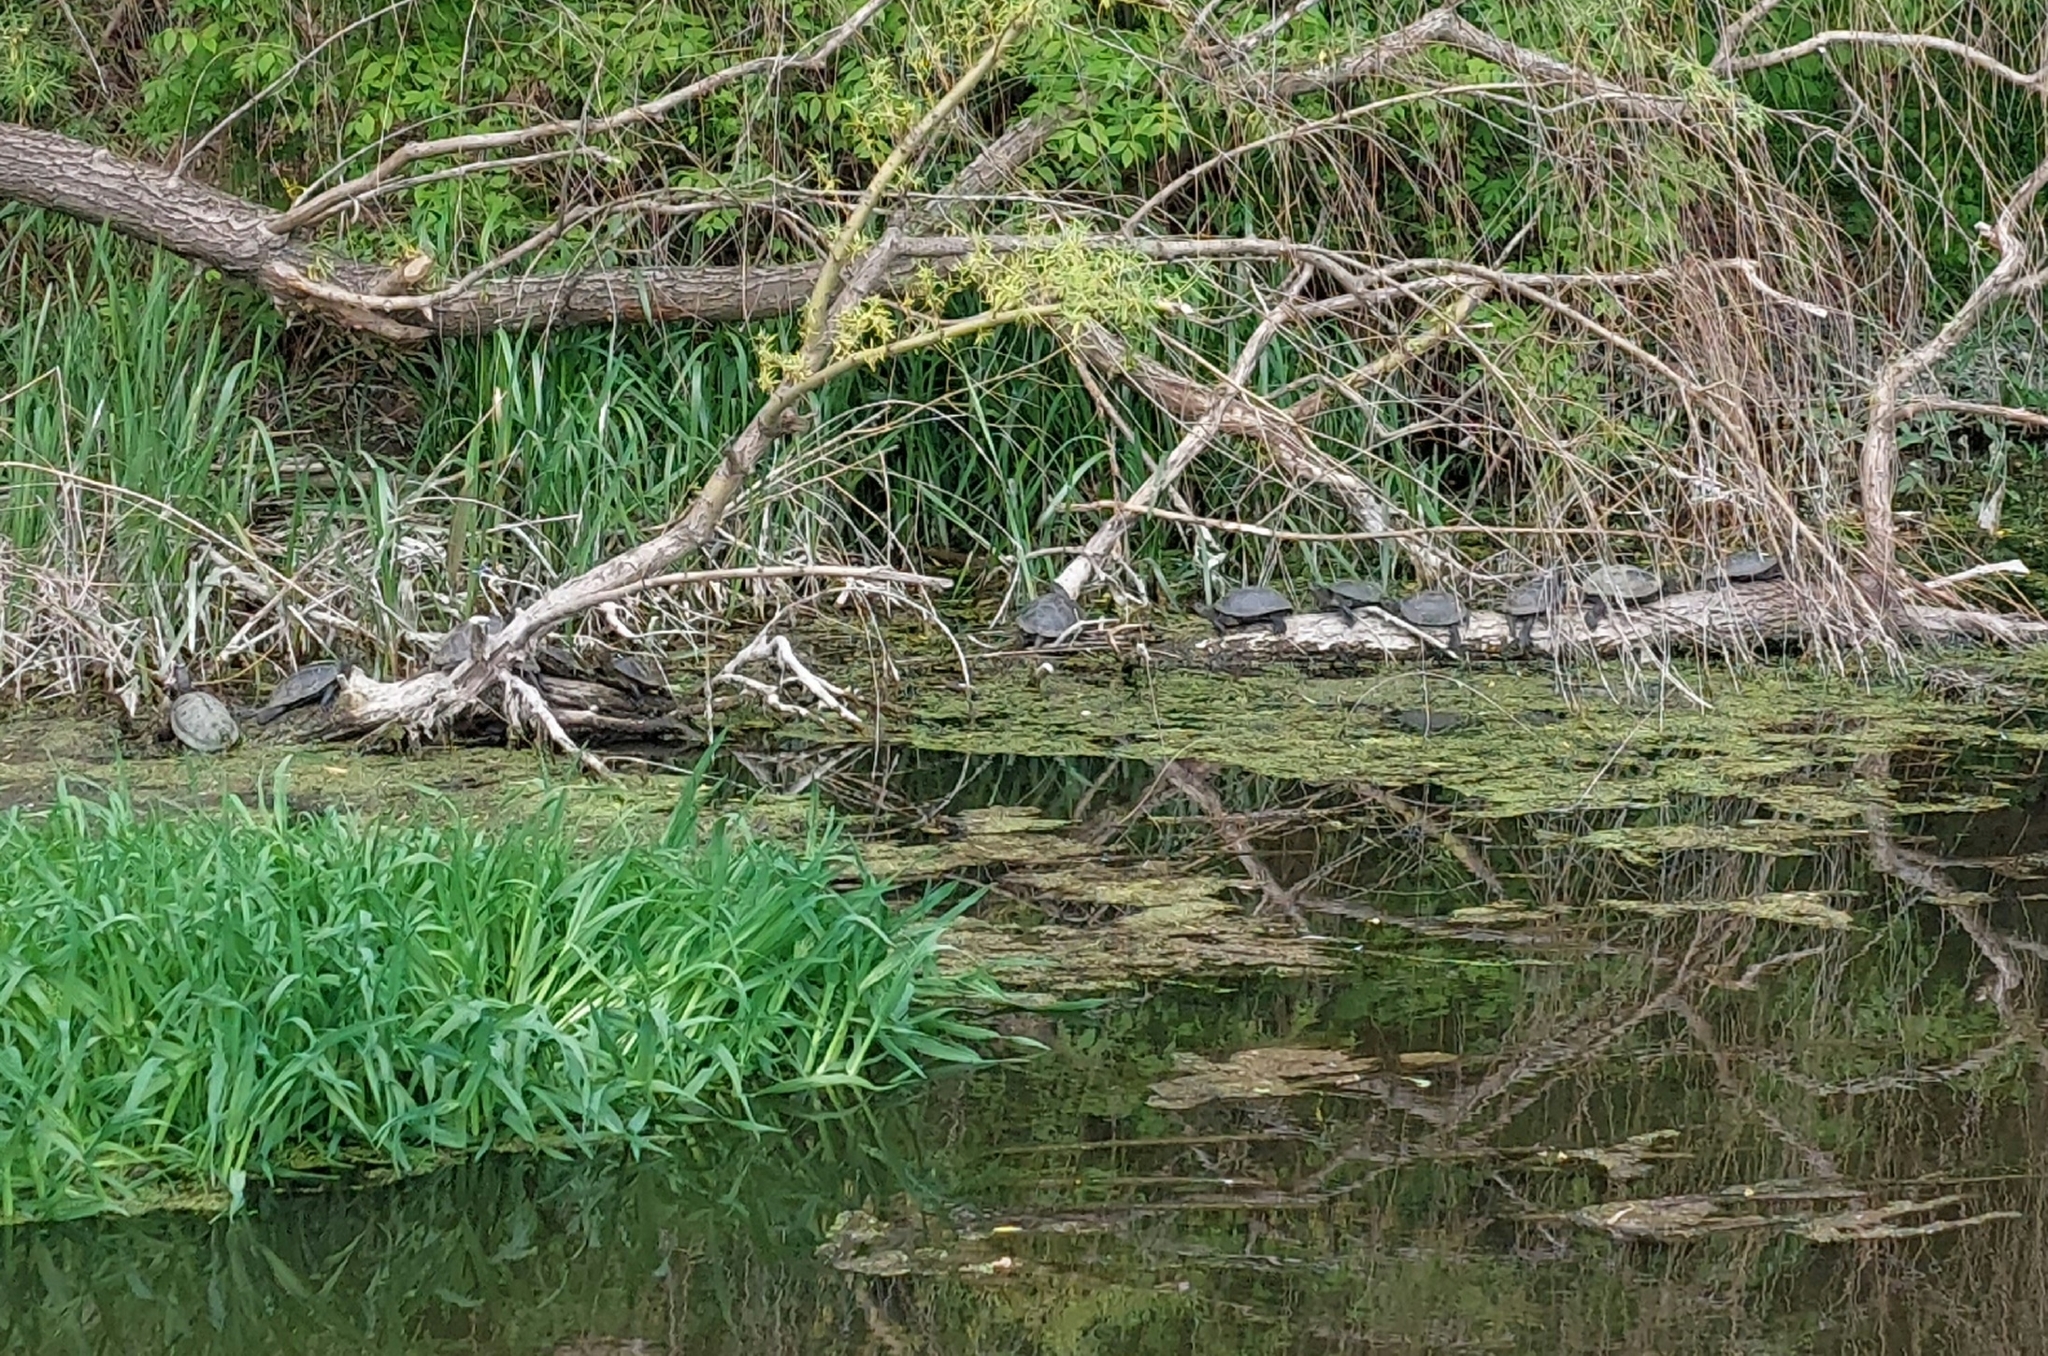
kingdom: Animalia
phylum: Chordata
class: Testudines
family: Emydidae
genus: Emys
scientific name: Emys orbicularis
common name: European pond turtle
